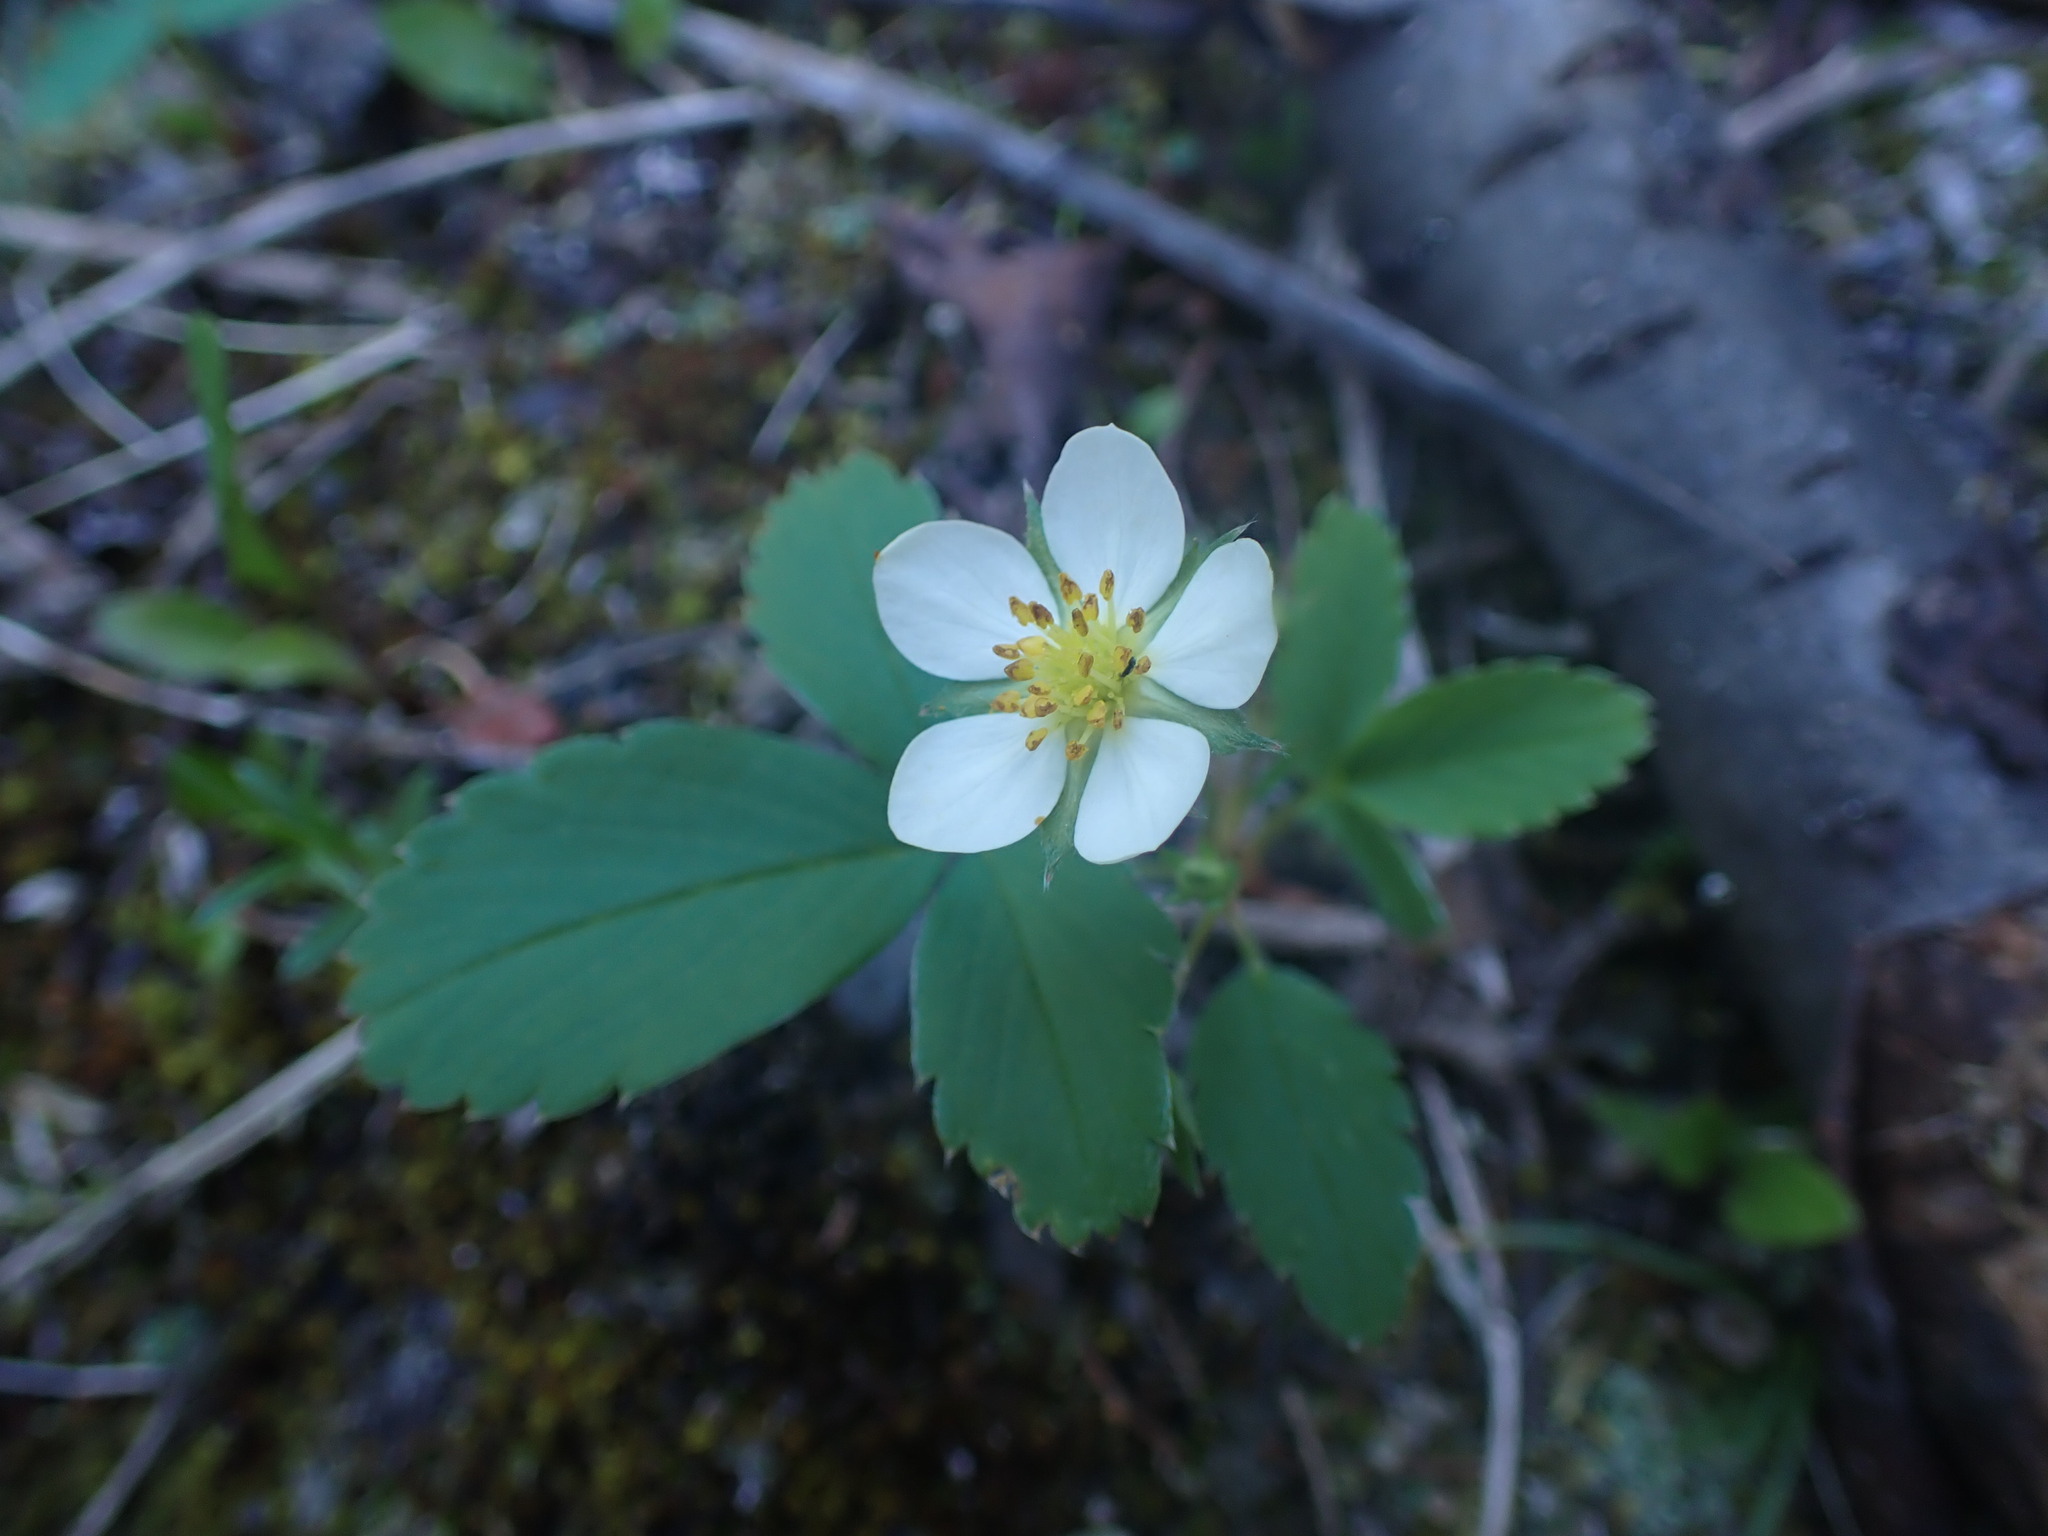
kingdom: Plantae
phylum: Tracheophyta
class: Magnoliopsida
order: Rosales
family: Rosaceae
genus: Fragaria
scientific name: Fragaria virginiana
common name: Thickleaved wild strawberry
